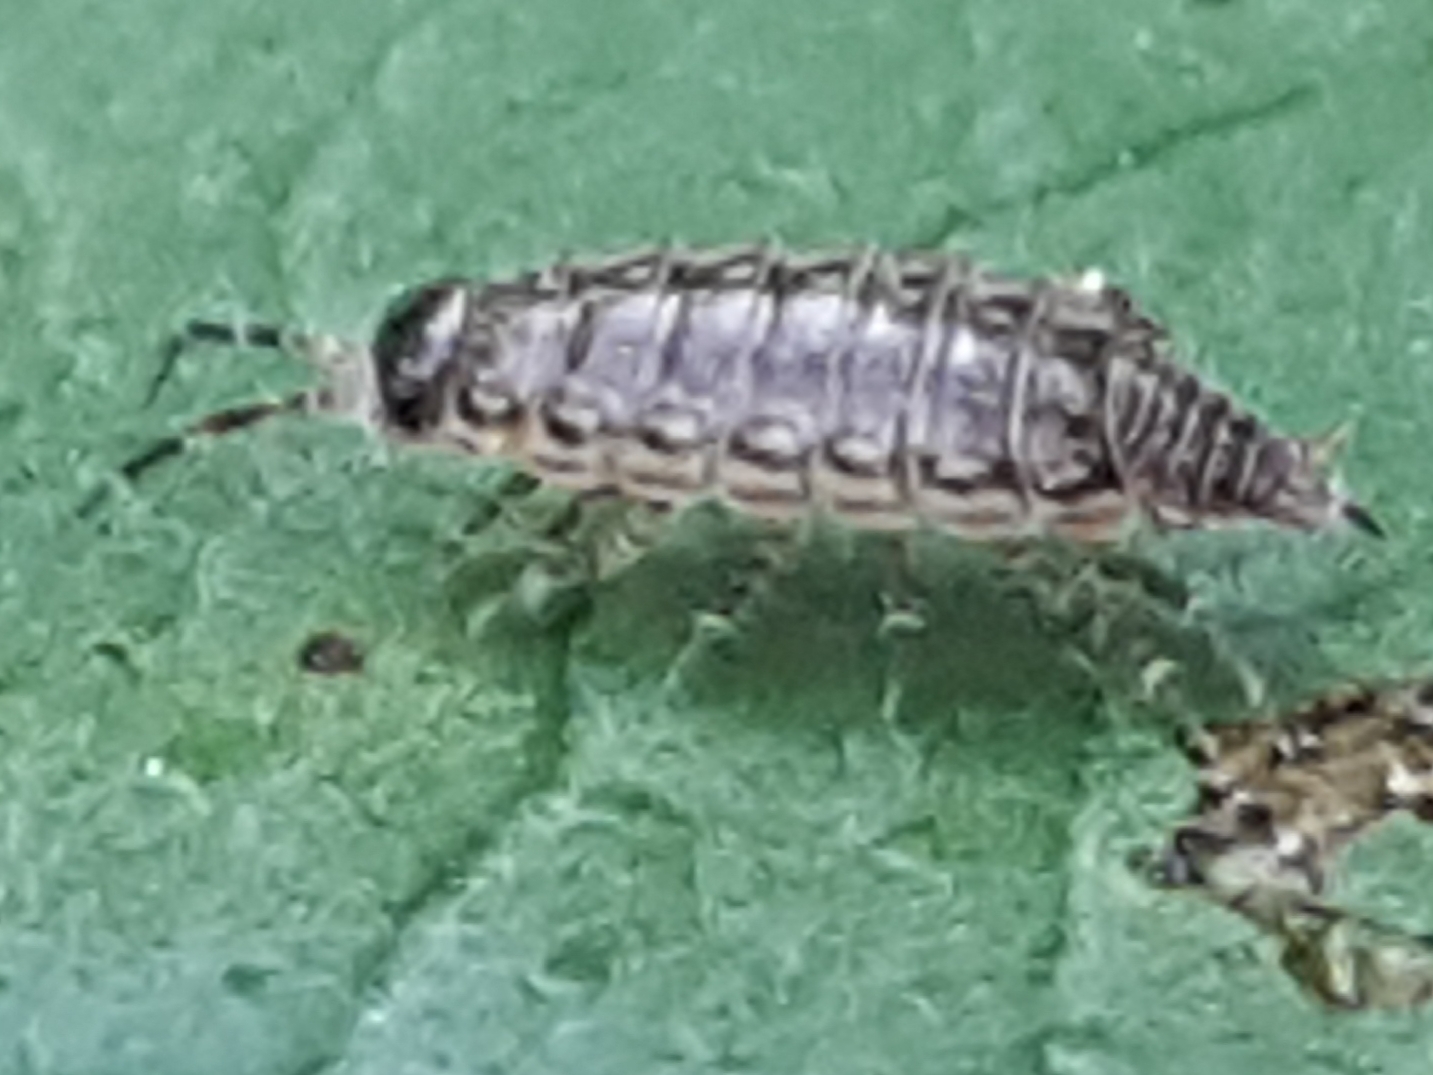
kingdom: Animalia
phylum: Arthropoda
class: Malacostraca
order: Isopoda
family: Philosciidae
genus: Philoscia
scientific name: Philoscia muscorum
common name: Common striped woodlouse
